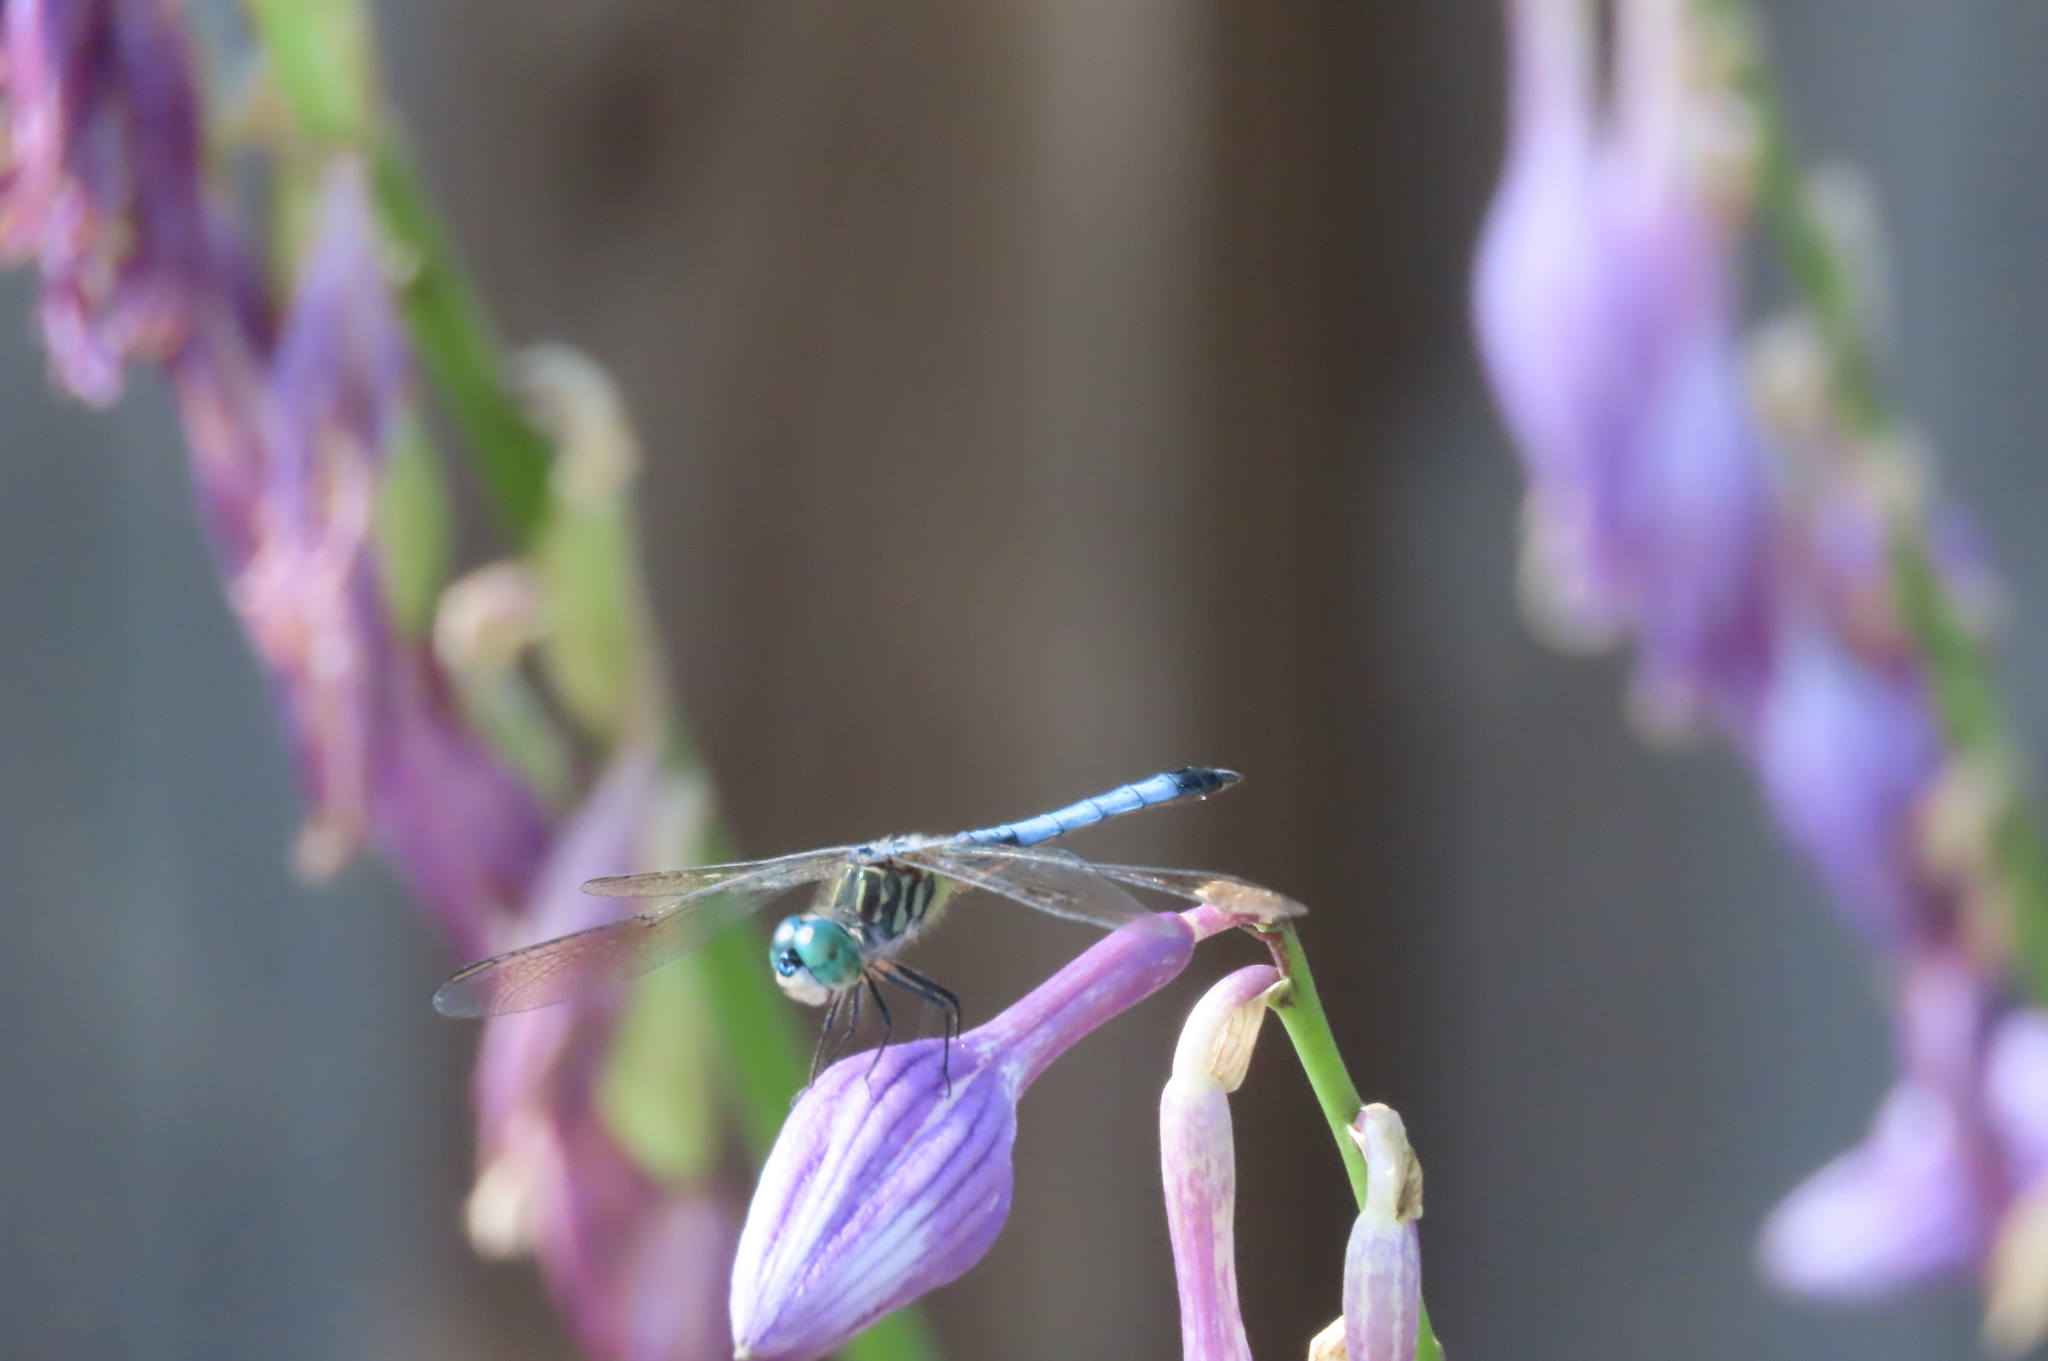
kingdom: Animalia
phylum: Arthropoda
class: Insecta
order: Odonata
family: Libellulidae
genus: Pachydiplax
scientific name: Pachydiplax longipennis
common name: Blue dasher
